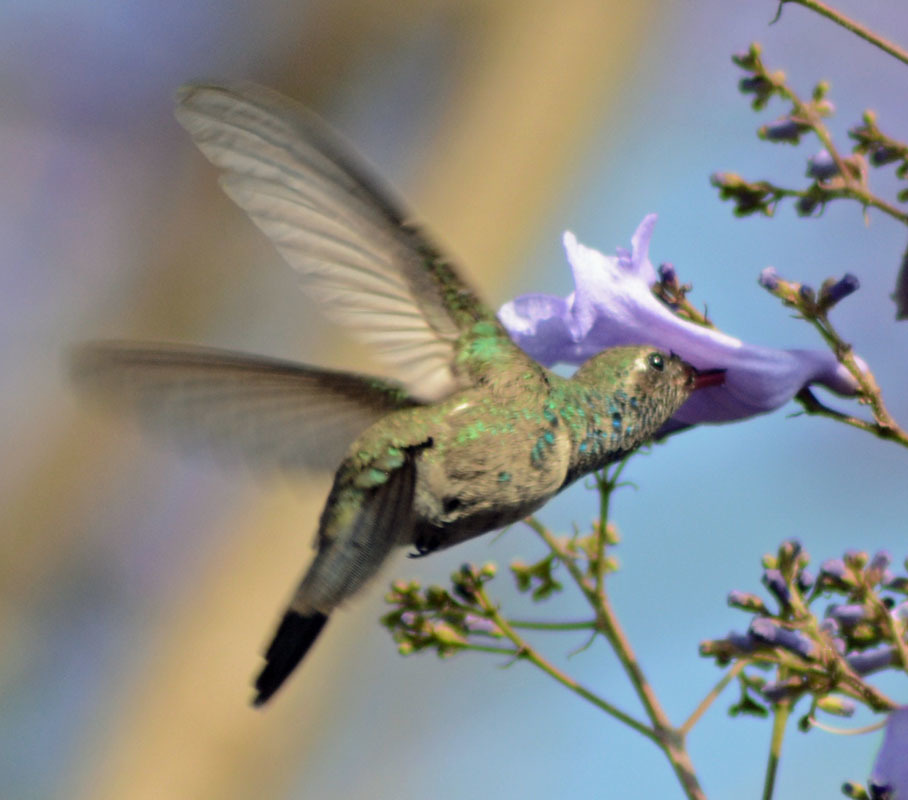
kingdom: Animalia
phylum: Chordata
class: Aves
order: Apodiformes
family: Trochilidae
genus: Cynanthus
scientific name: Cynanthus latirostris
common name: Broad-billed hummingbird
